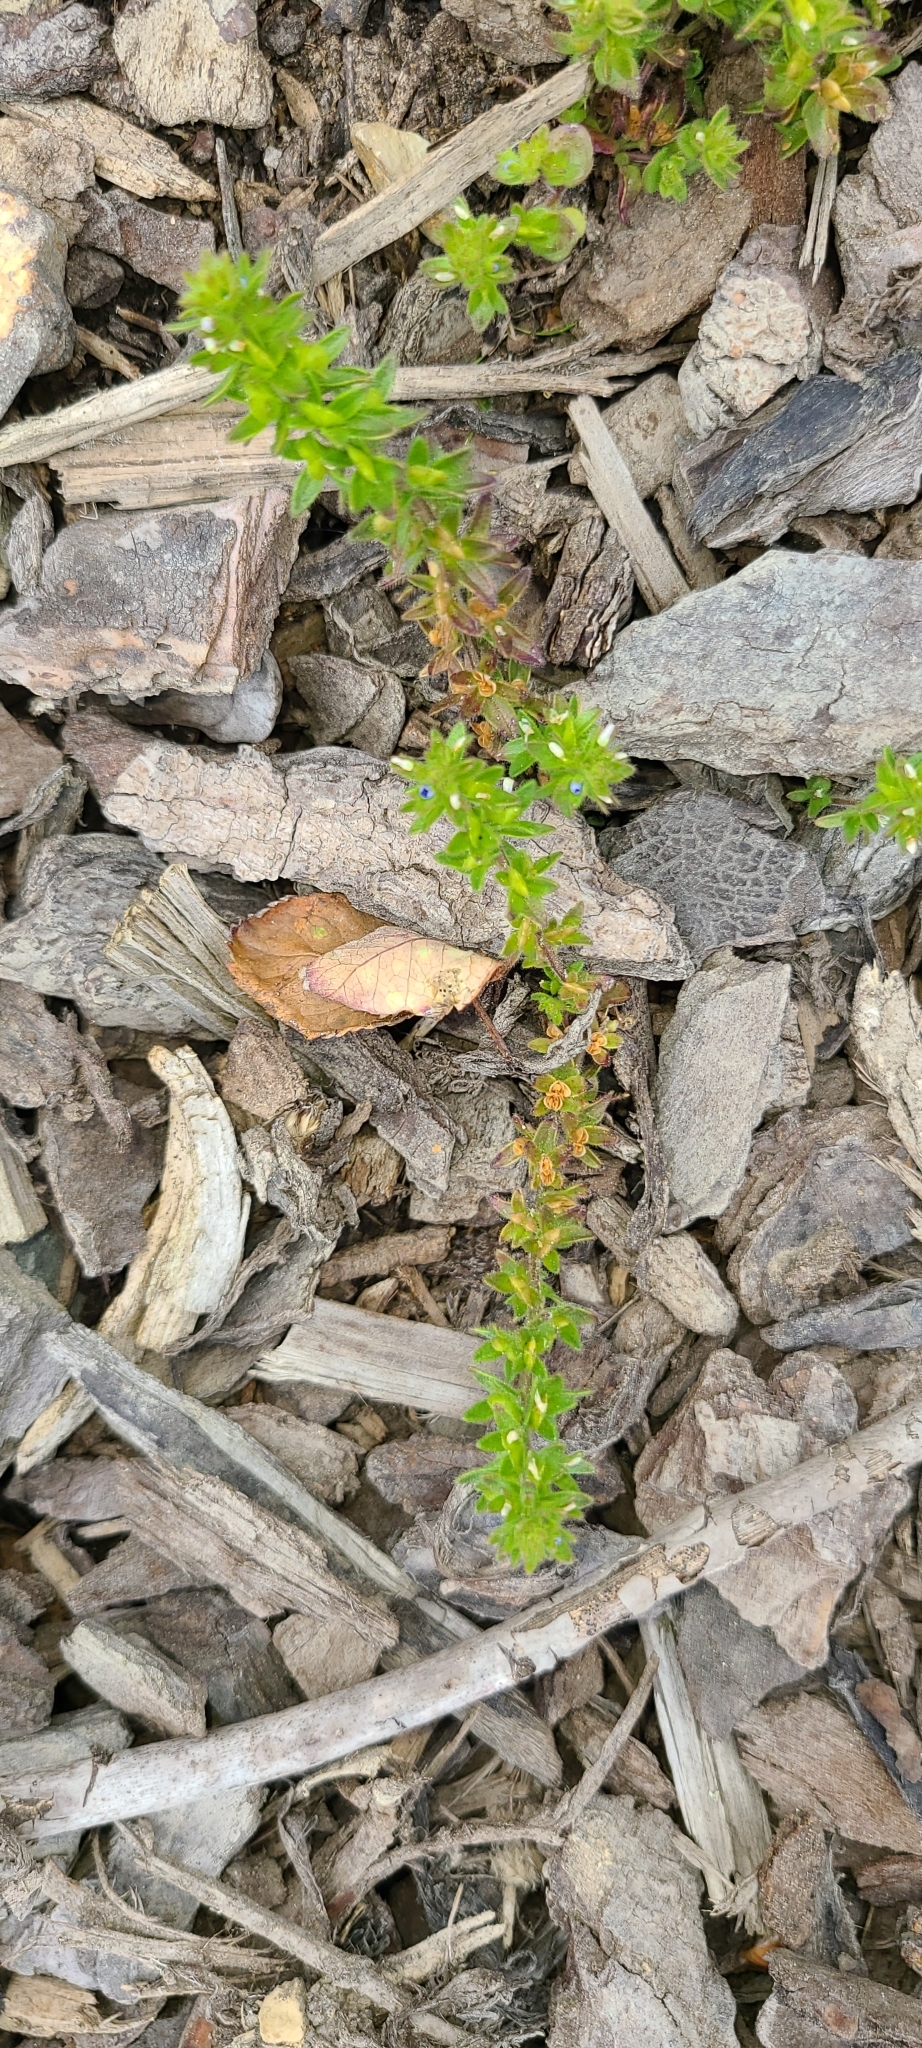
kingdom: Plantae
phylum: Tracheophyta
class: Magnoliopsida
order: Lamiales
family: Plantaginaceae
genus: Veronica
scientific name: Veronica arvensis
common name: Corn speedwell
